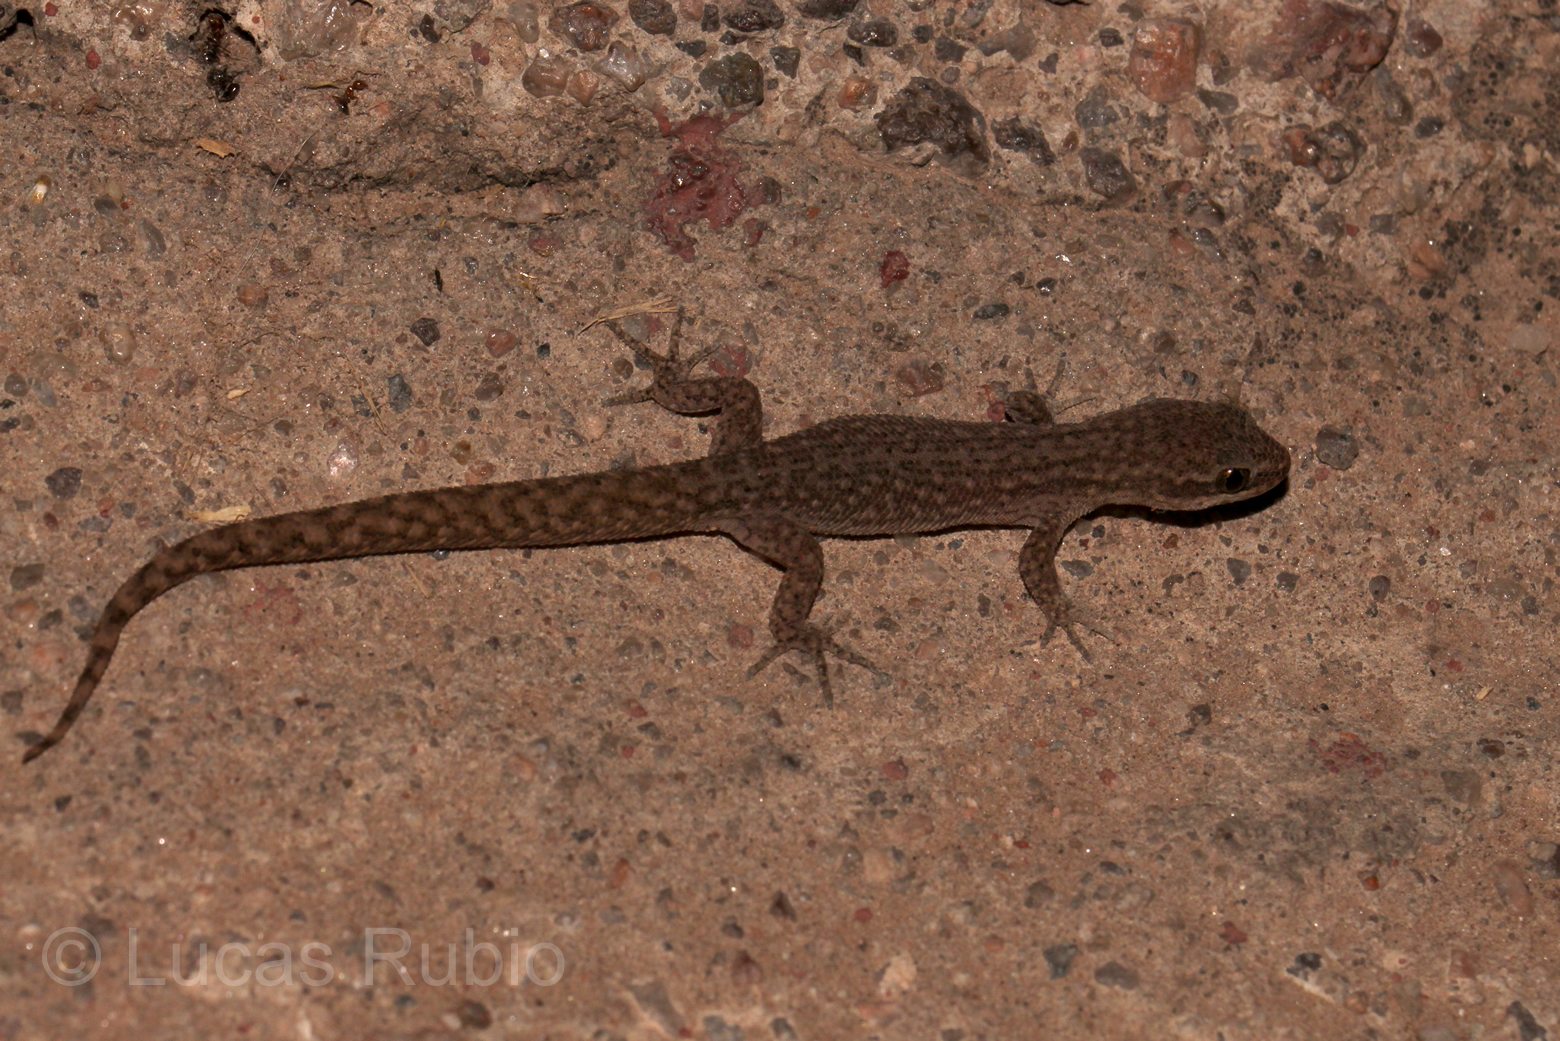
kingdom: Animalia
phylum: Chordata
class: Squamata
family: Phyllodactylidae
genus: Homonota
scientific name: Homonota borellii
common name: Borelli's marked gecko
